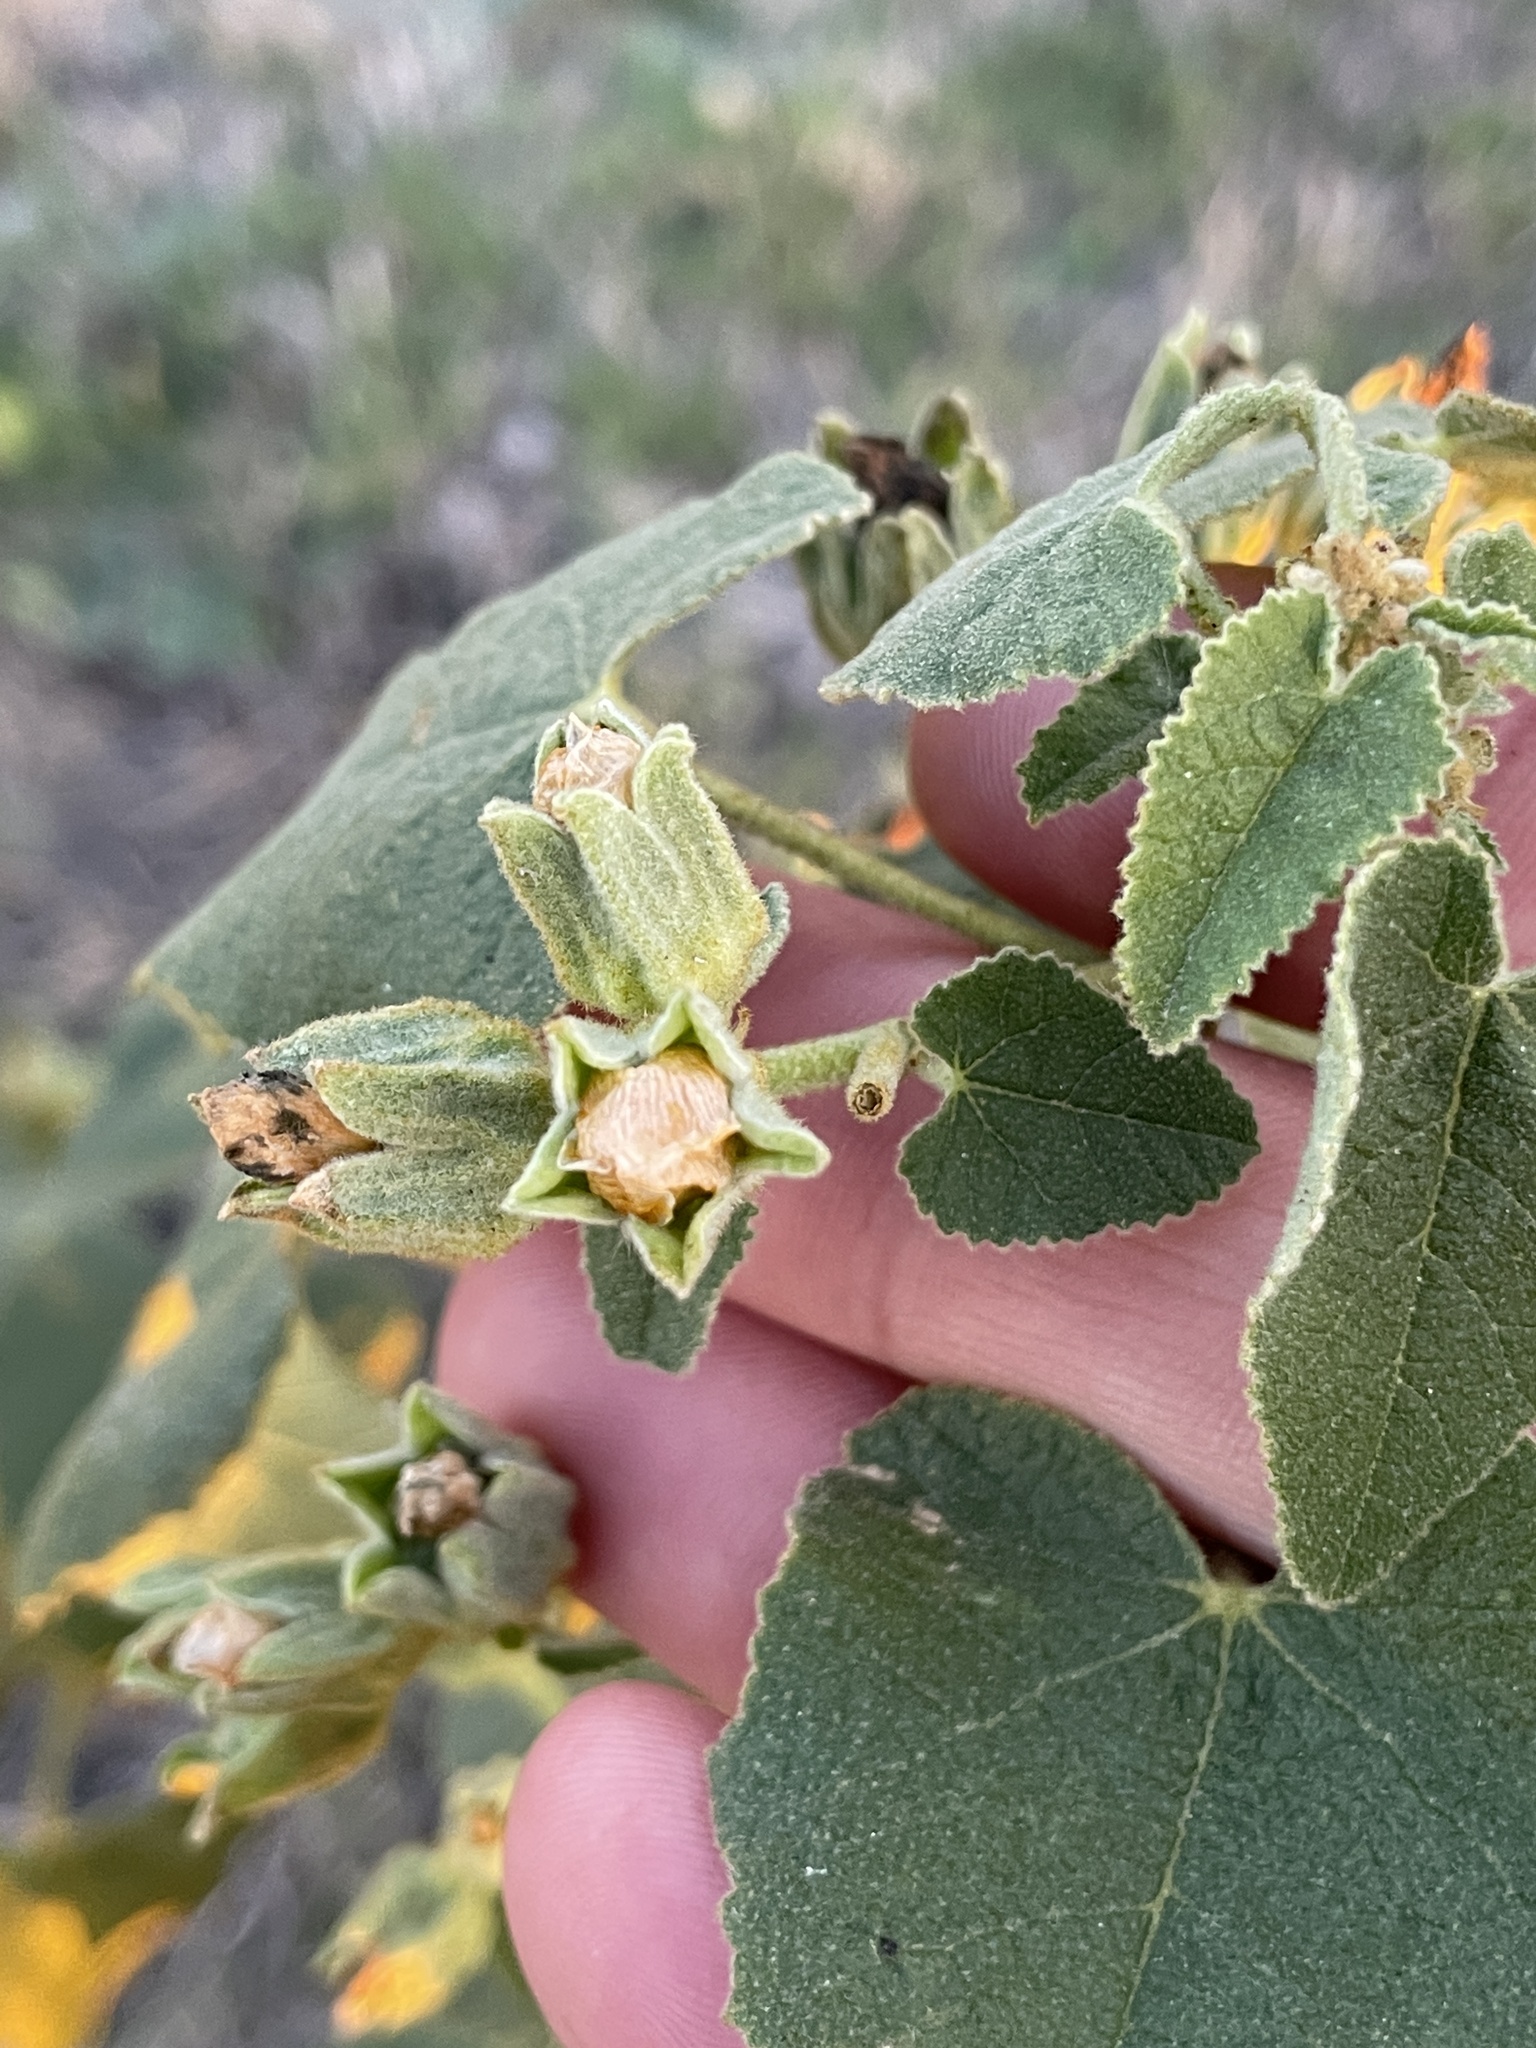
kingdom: Plantae
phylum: Tracheophyta
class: Magnoliopsida
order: Malvales
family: Malvaceae
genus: Allowissadula
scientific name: Allowissadula lozanoi
